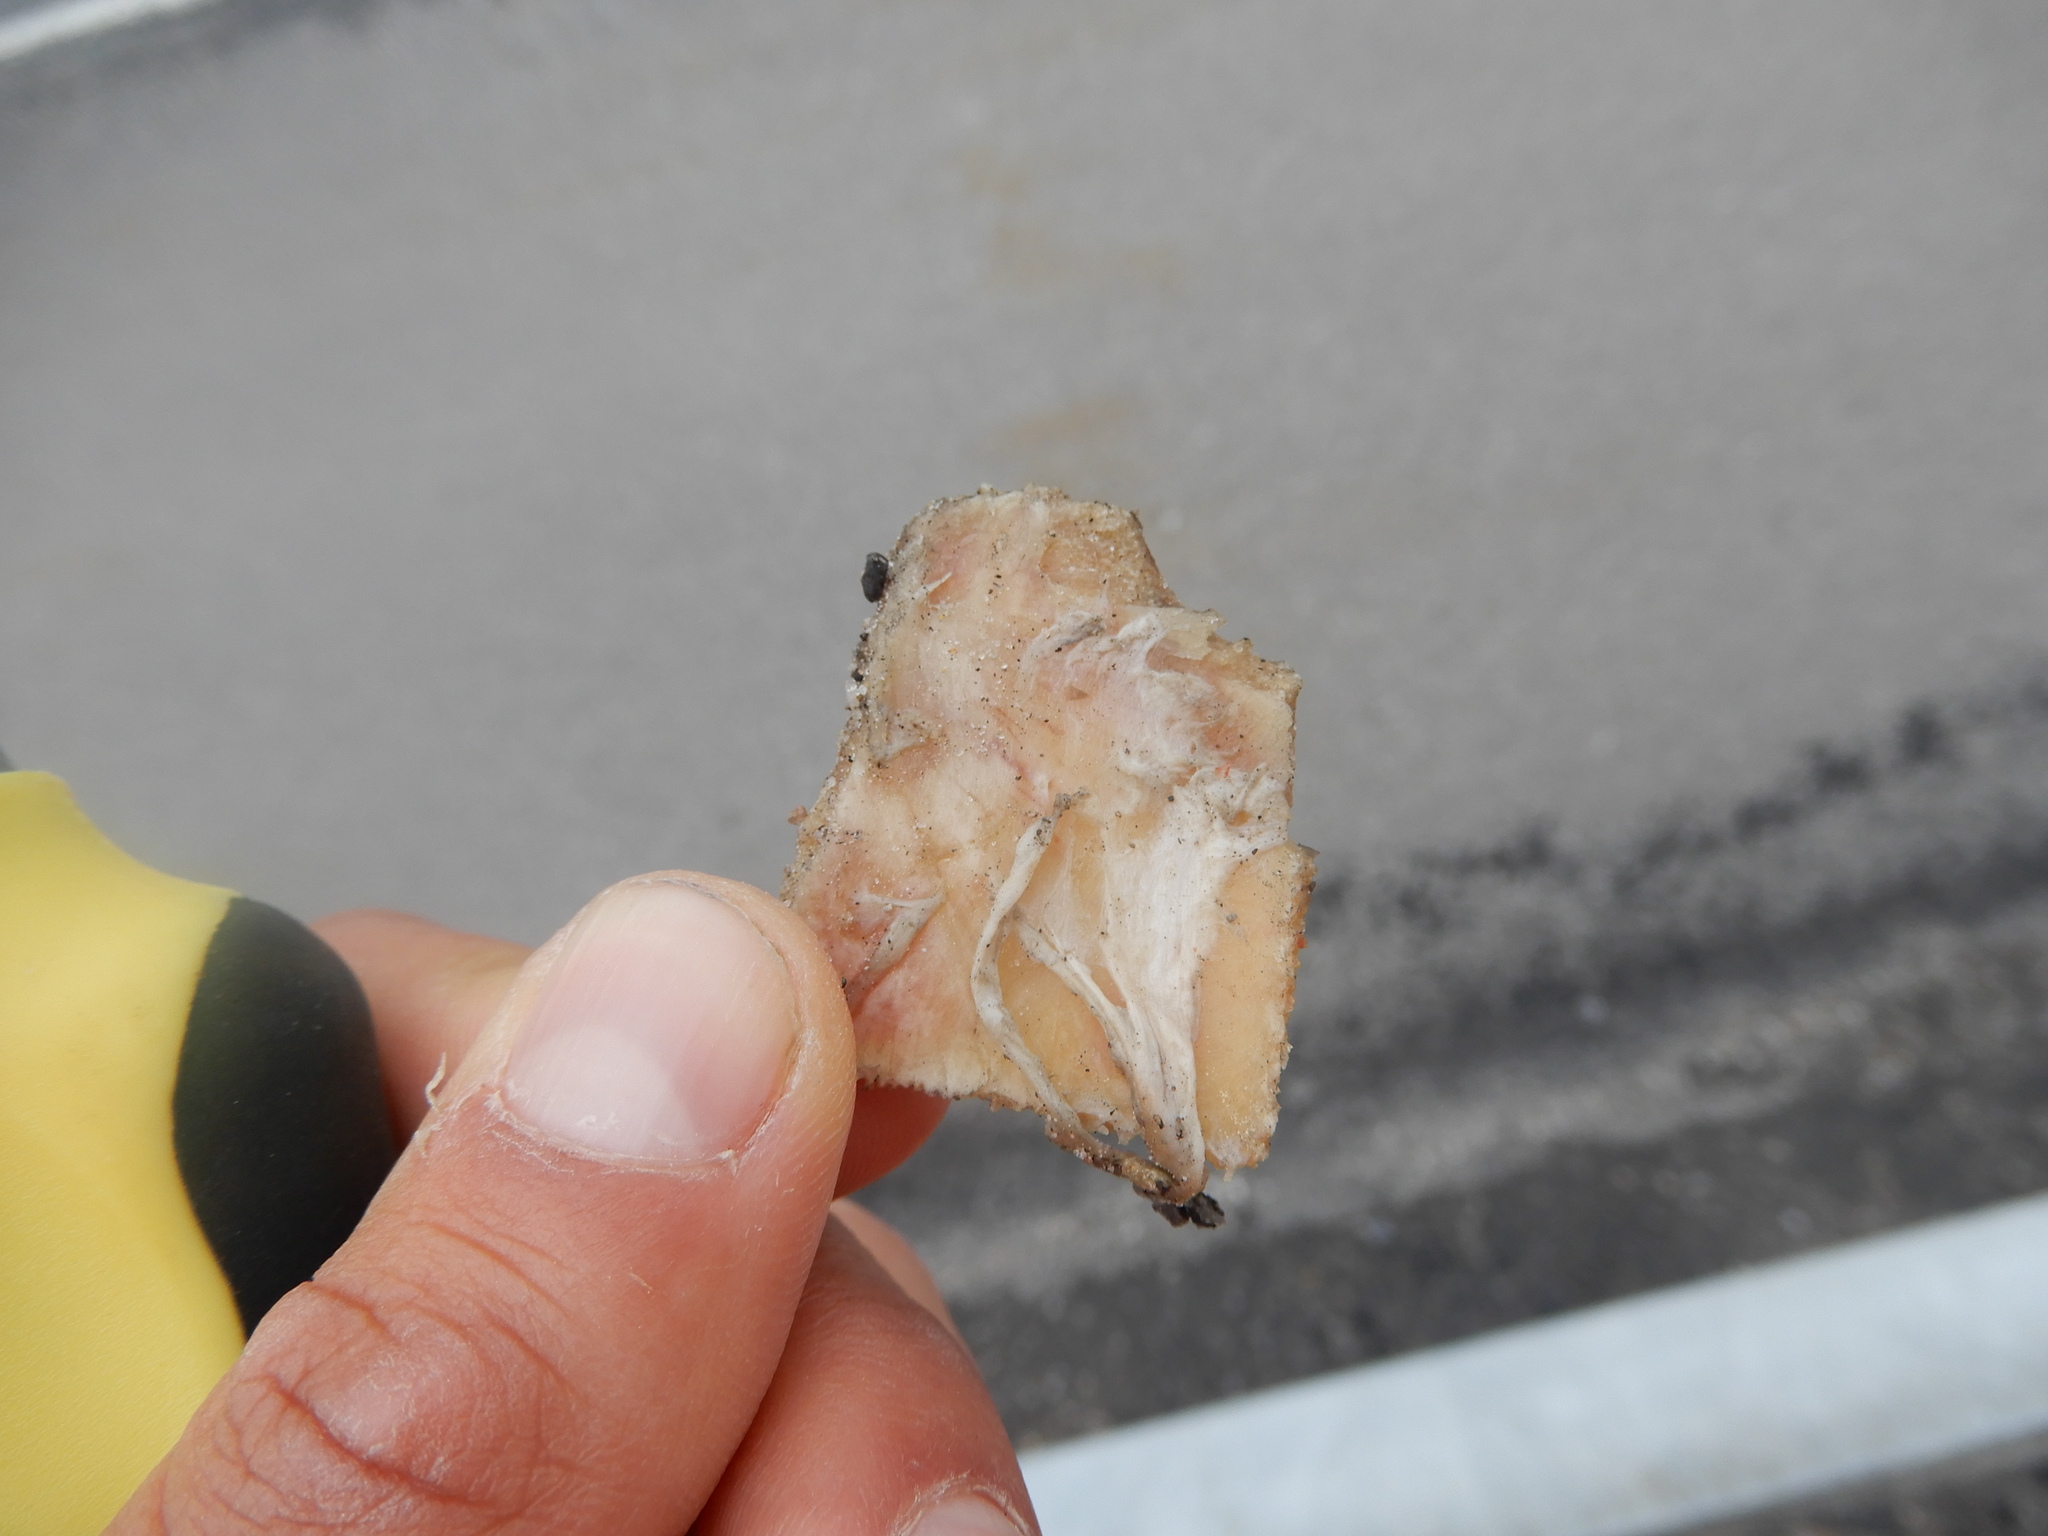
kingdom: Animalia
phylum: Chordata
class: Testudines
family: Emydidae
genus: Chrysemys
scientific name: Chrysemys picta
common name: Painted turtle
